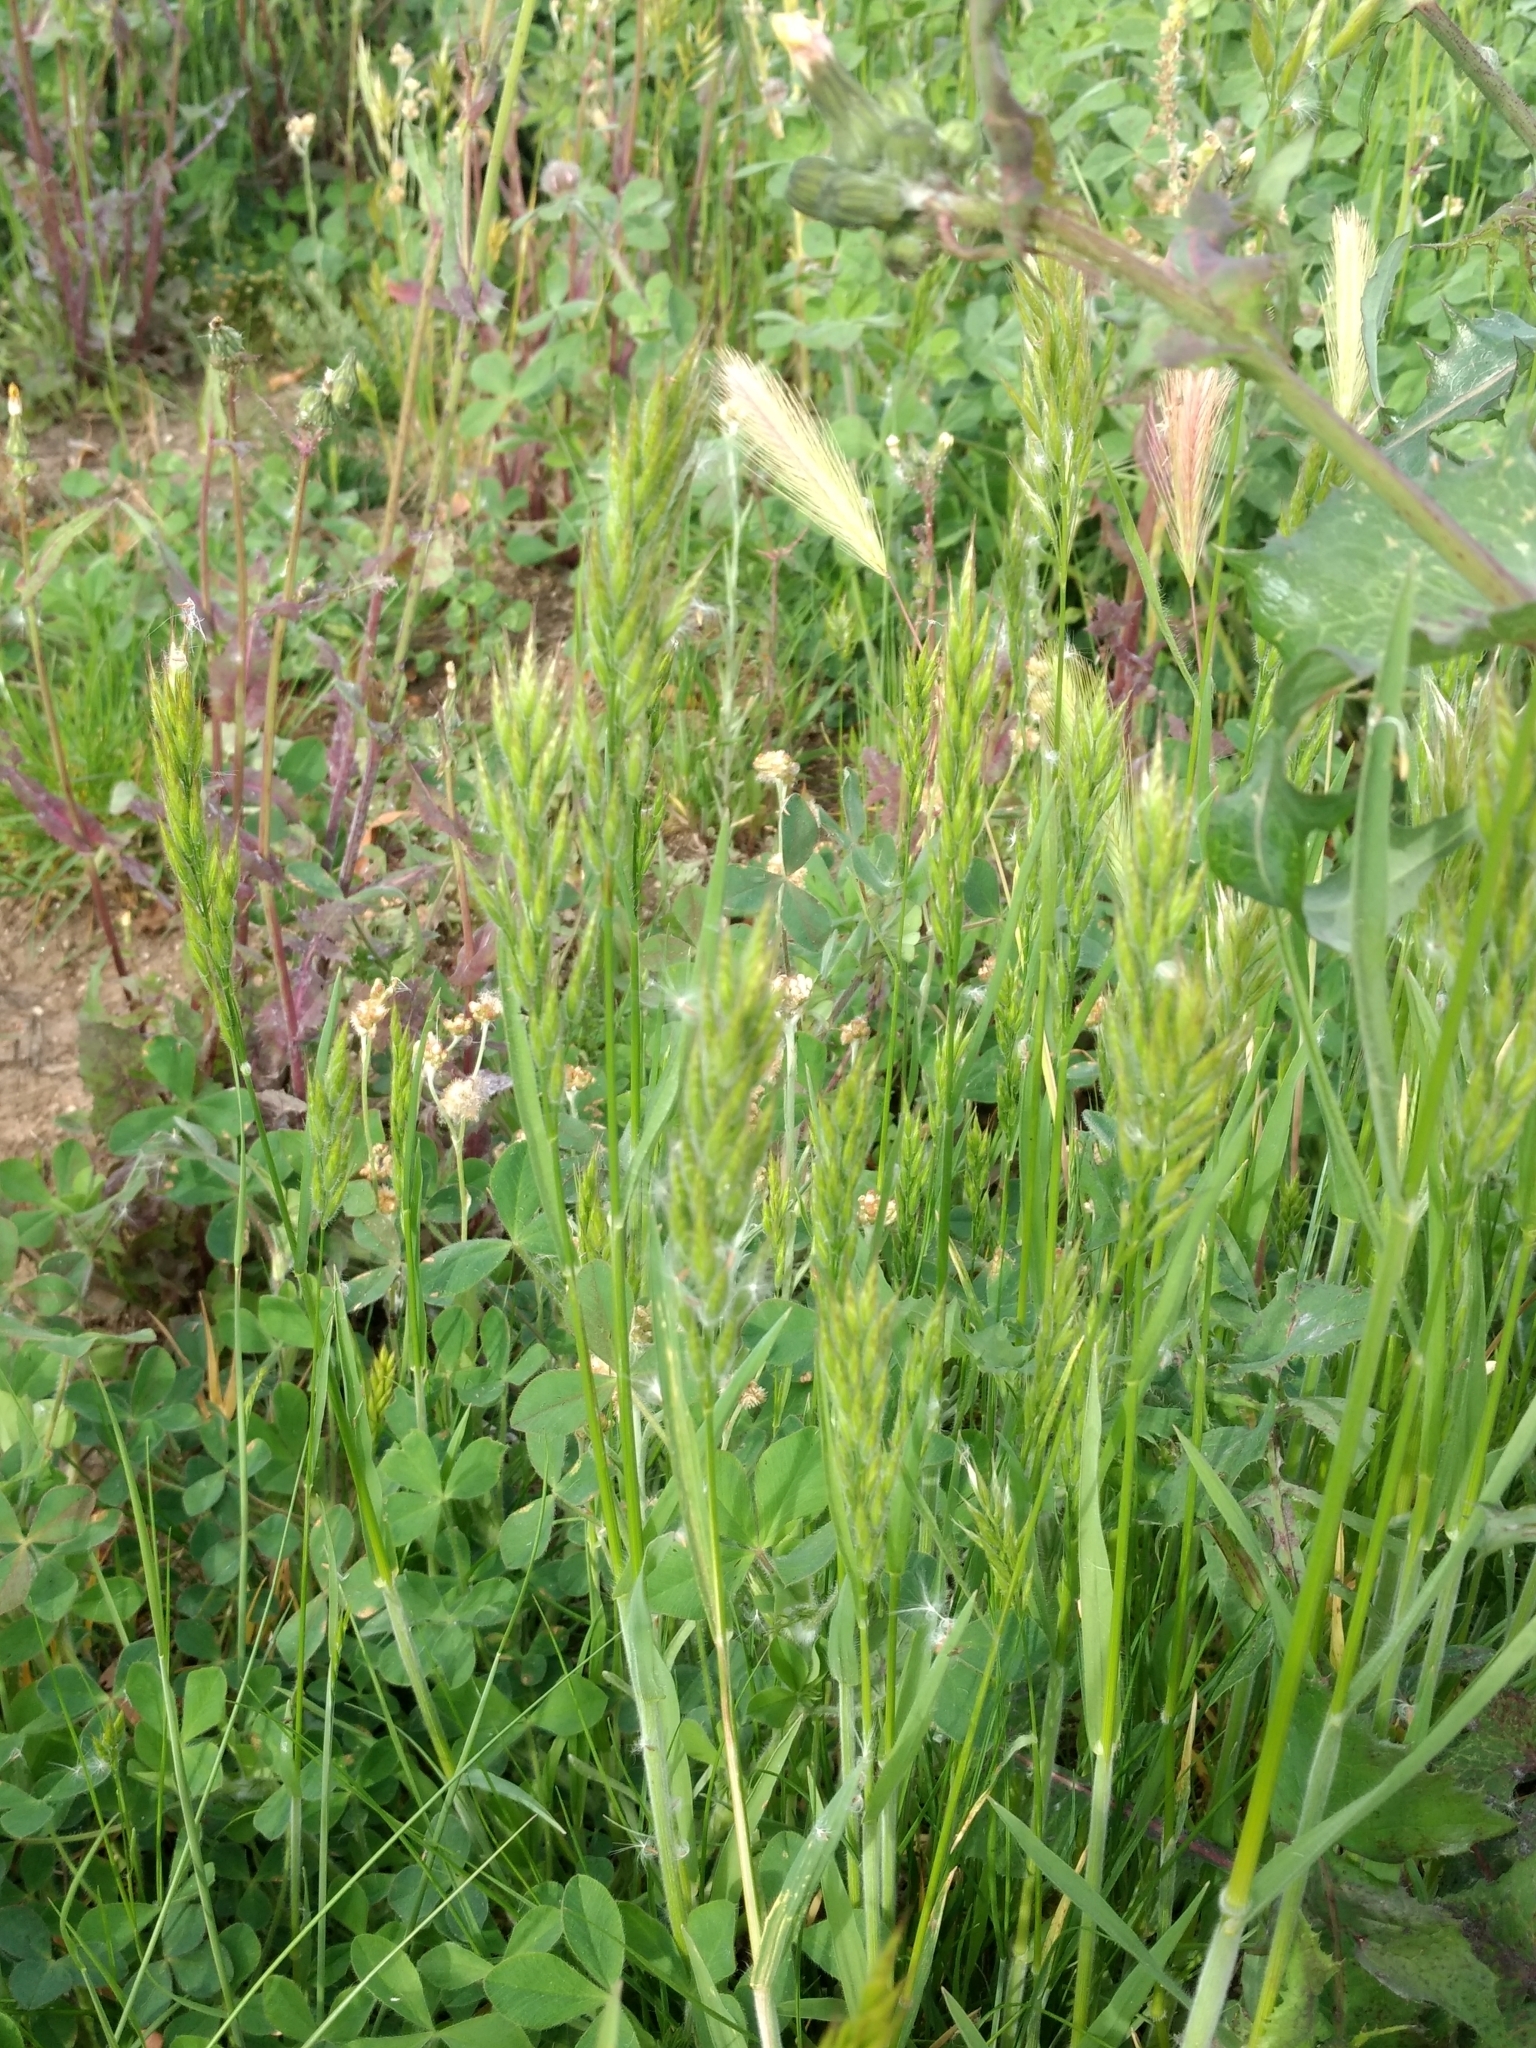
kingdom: Plantae
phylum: Tracheophyta
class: Liliopsida
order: Poales
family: Poaceae
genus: Bromus
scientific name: Bromus hordeaceus
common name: Soft brome
